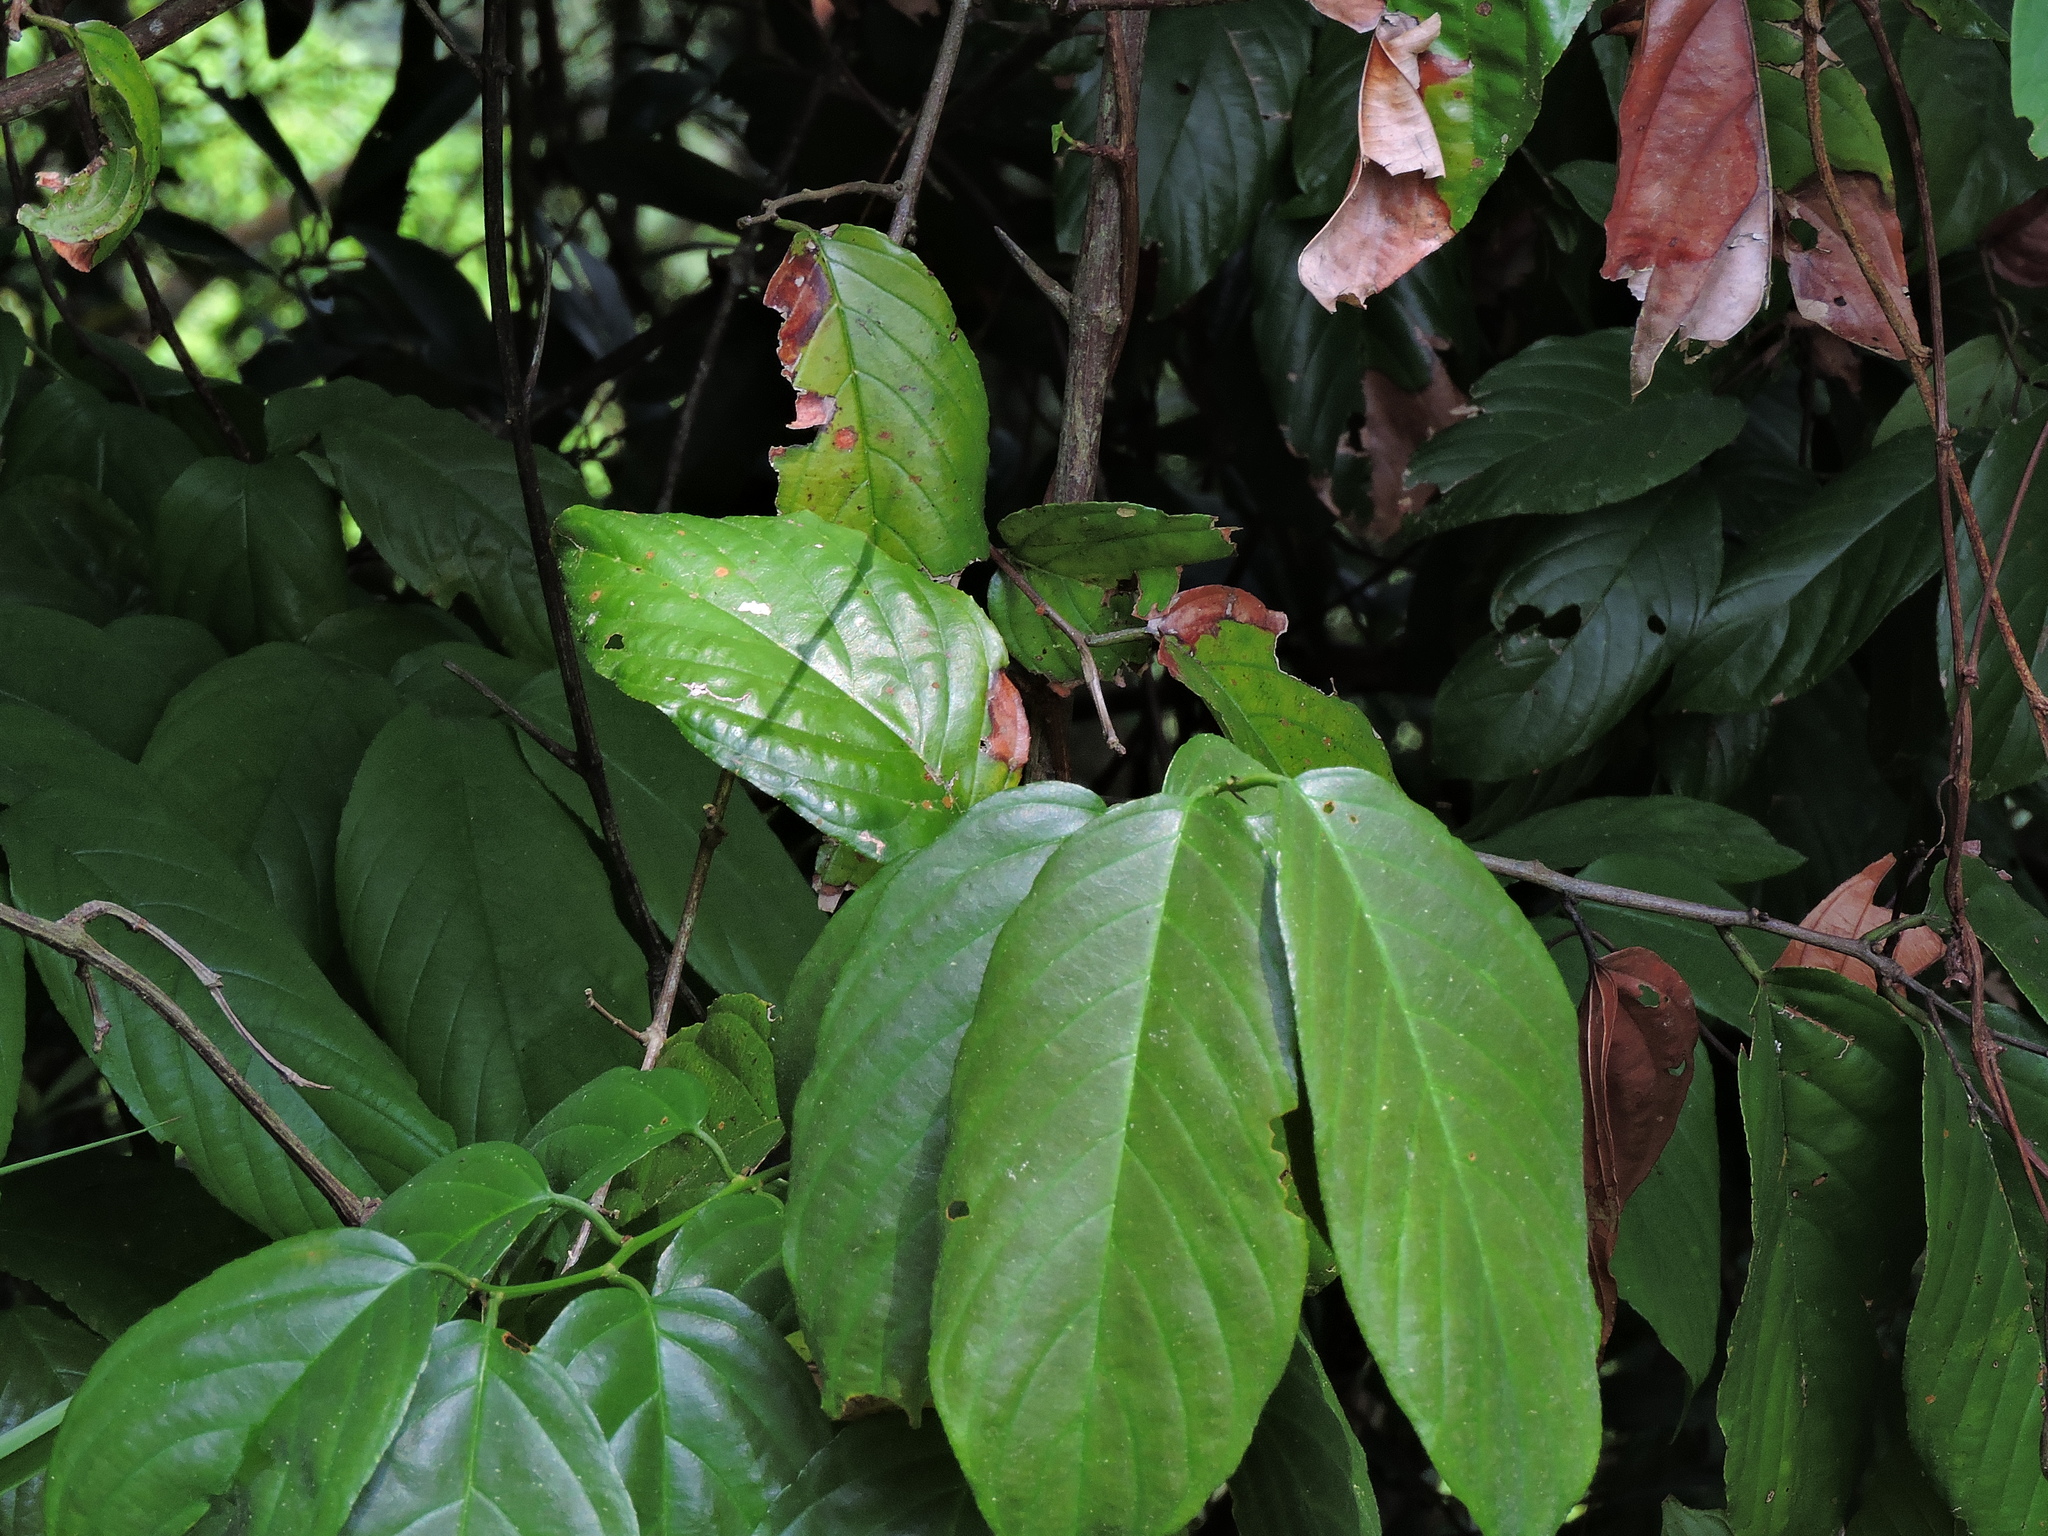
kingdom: Plantae
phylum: Tracheophyta
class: Magnoliopsida
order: Rosales
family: Rhamnaceae
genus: Sageretia
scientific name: Sageretia randaiensis
